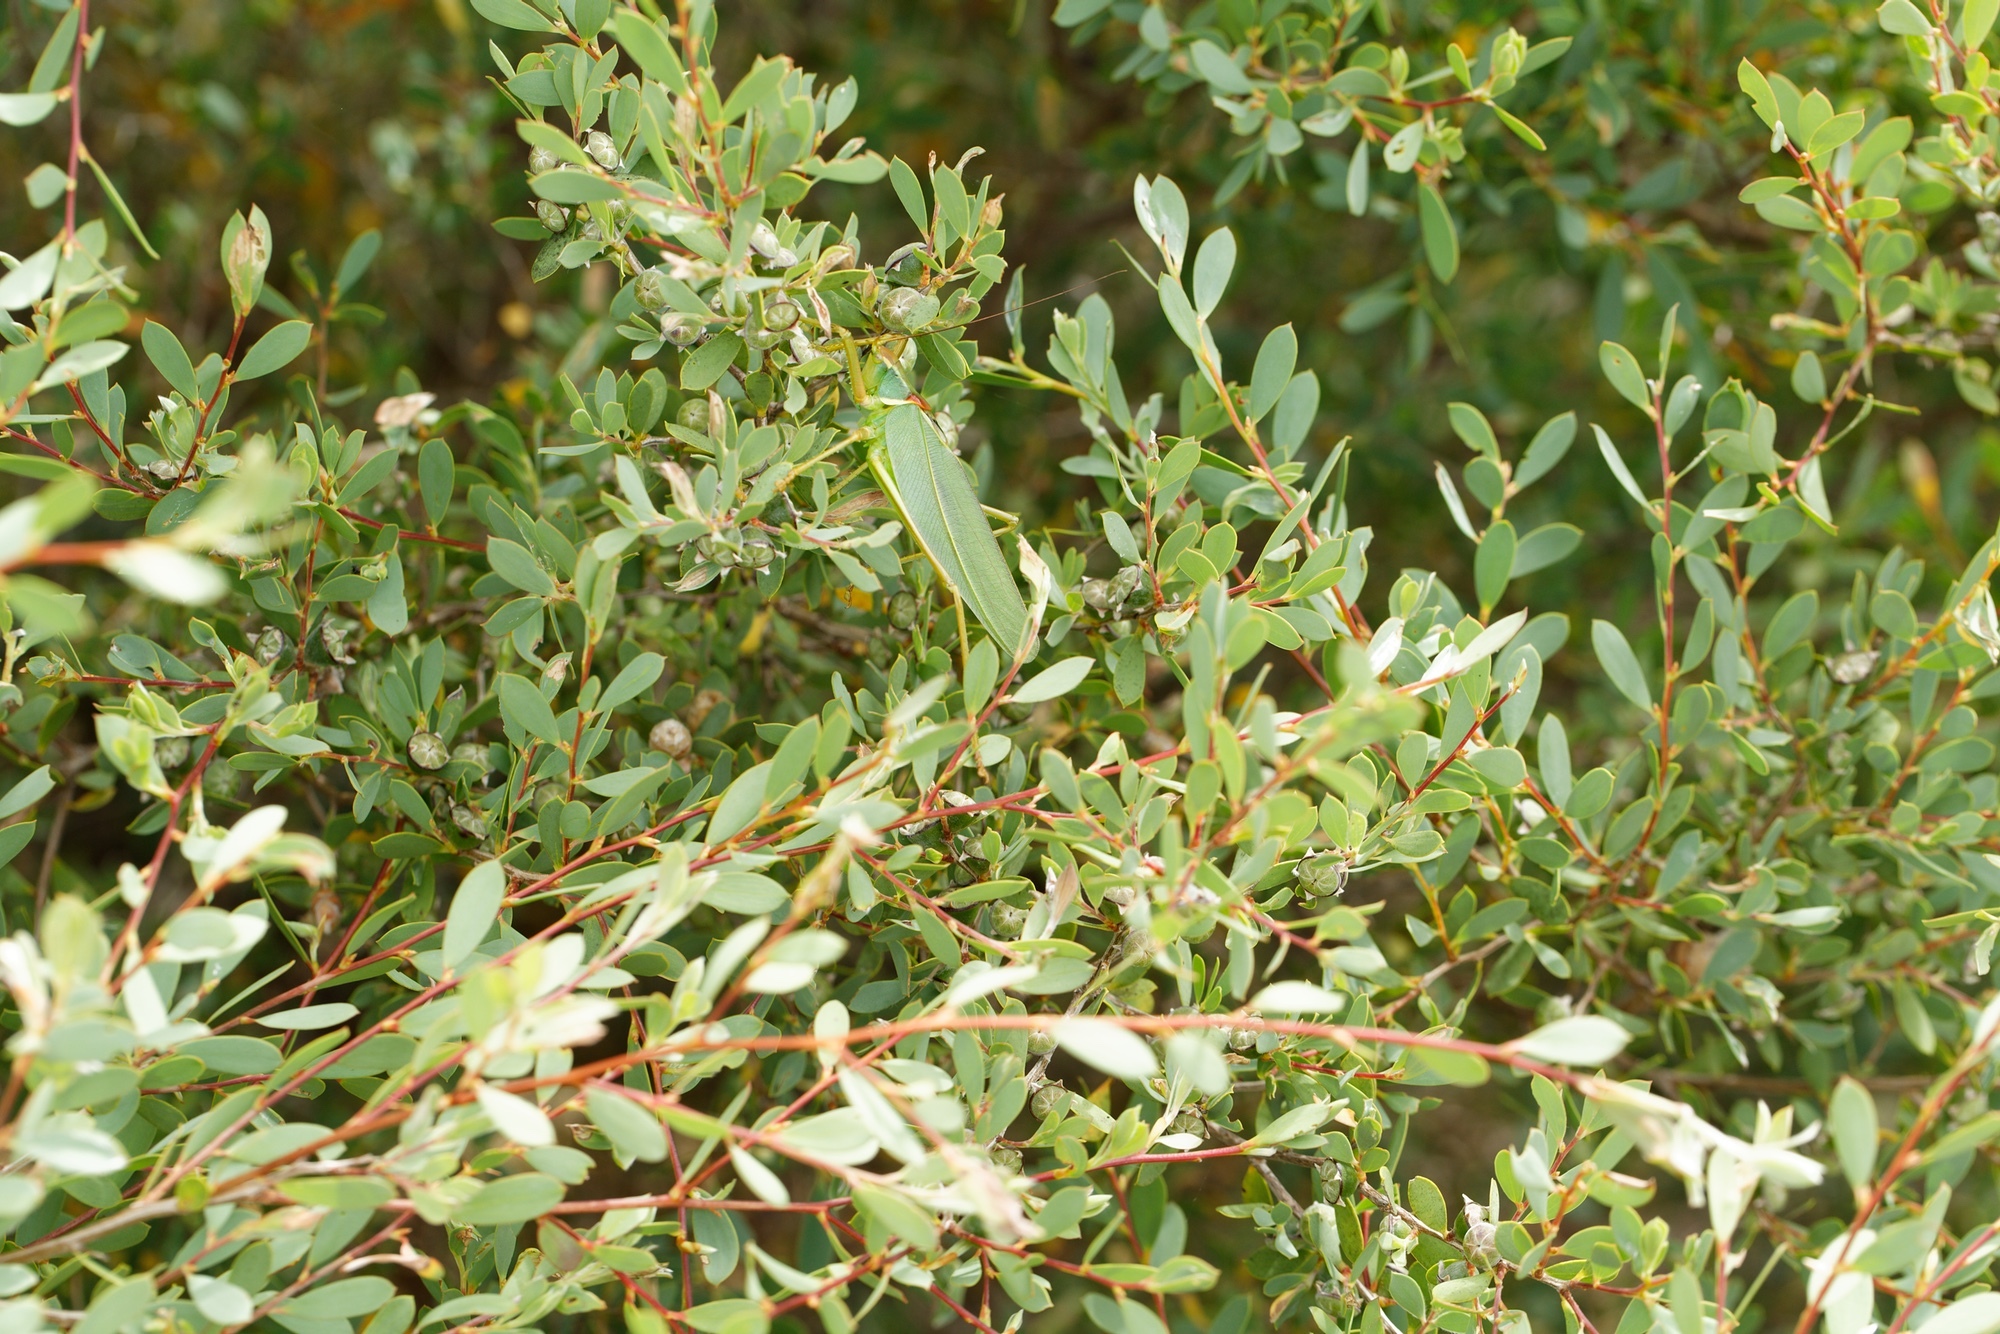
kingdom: Animalia
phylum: Arthropoda
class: Insecta
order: Orthoptera
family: Tettigoniidae
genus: Terpandrus
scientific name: Terpandrus endota
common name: Great green gumleaf katydid
